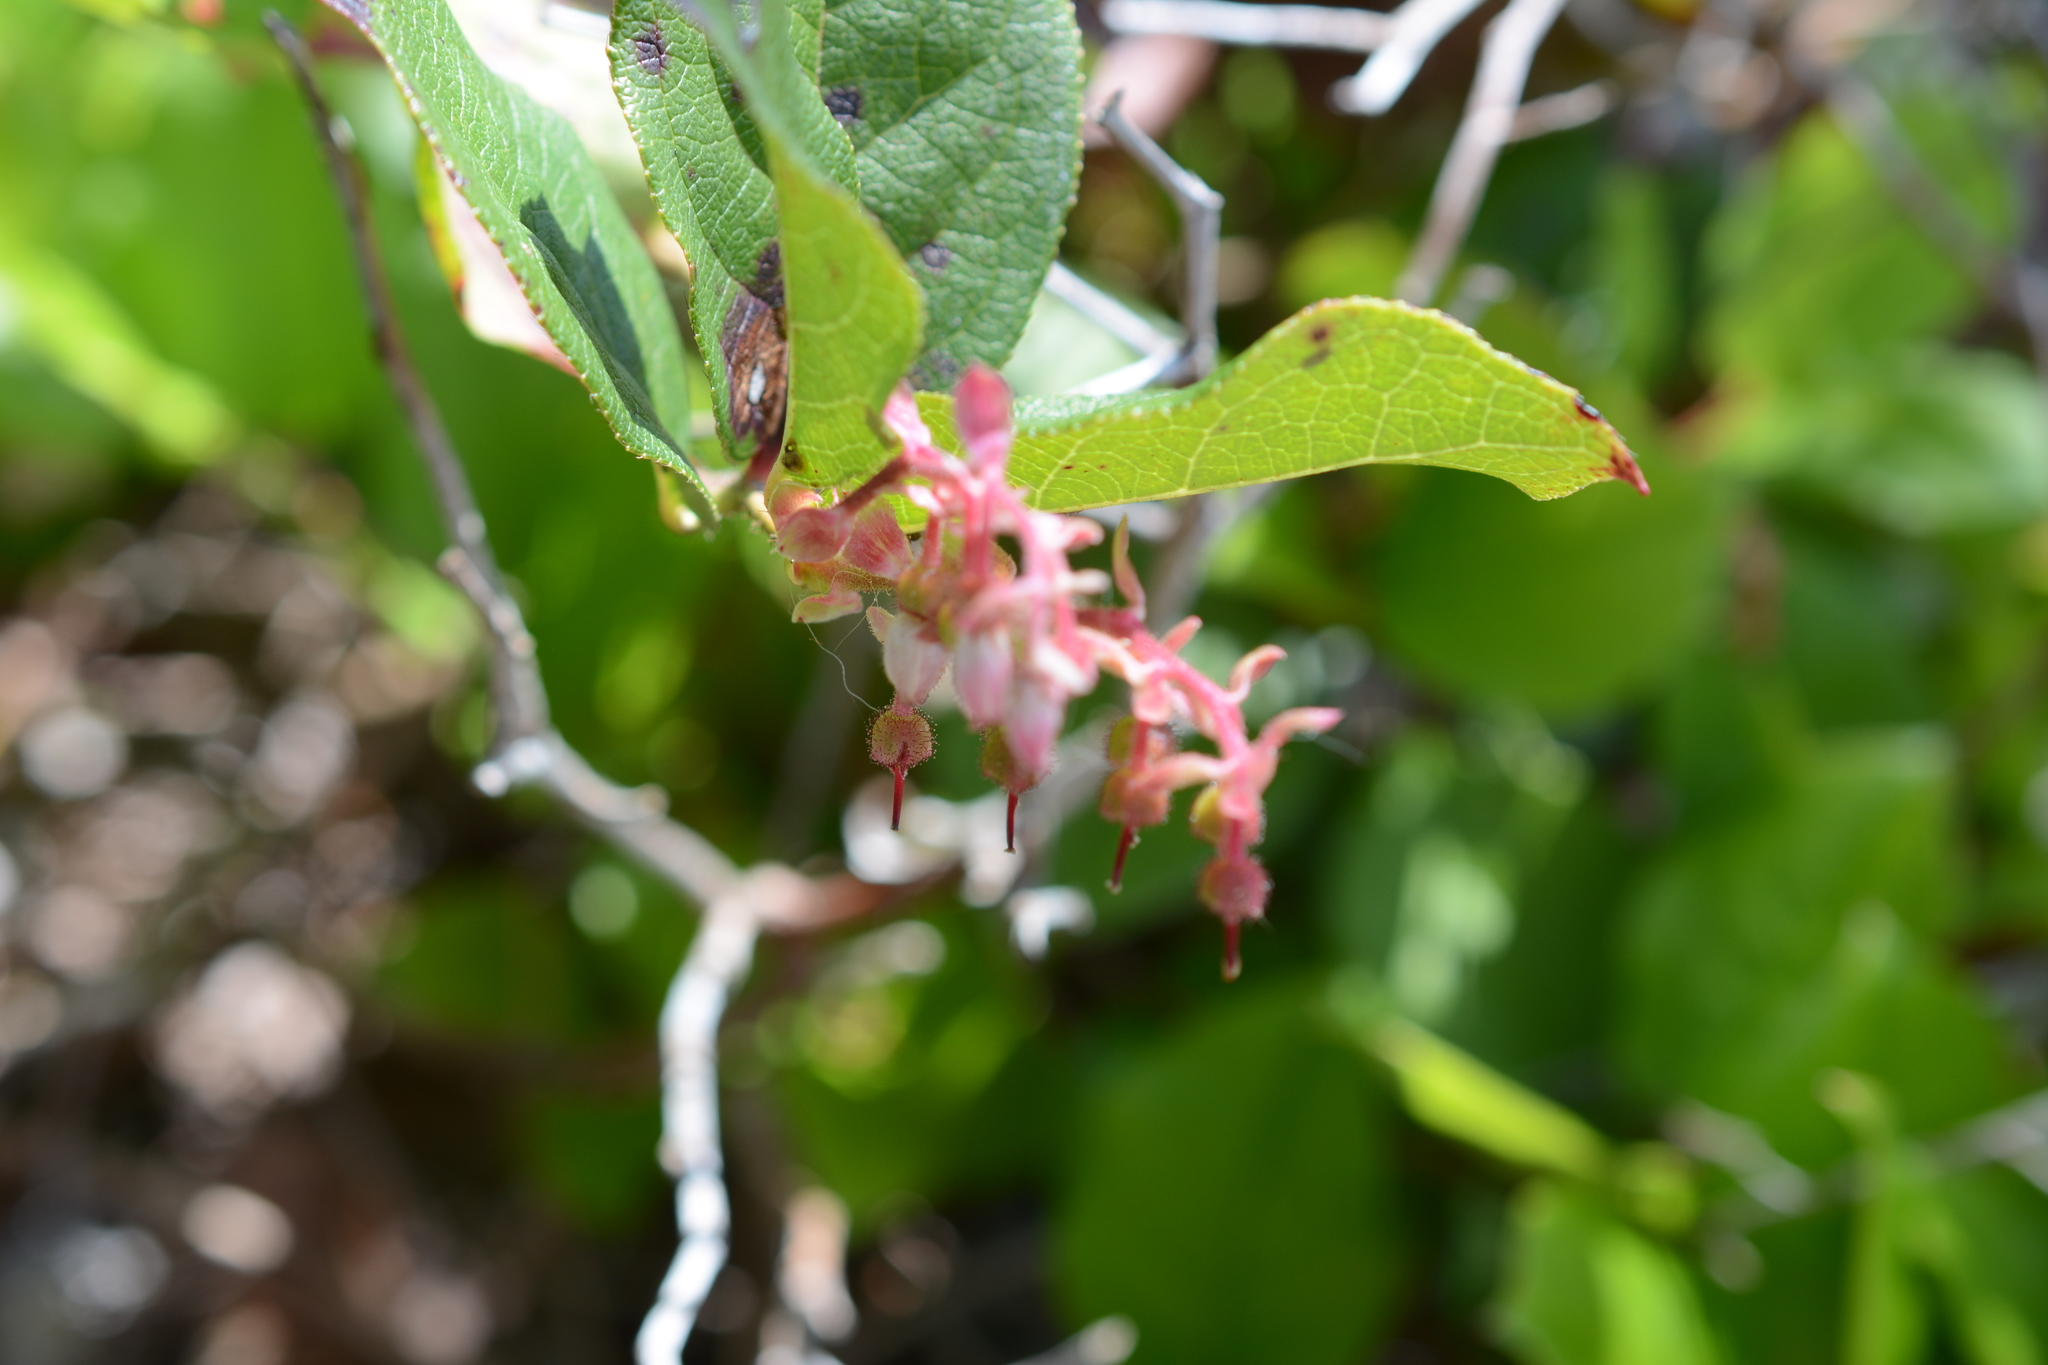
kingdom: Plantae
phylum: Tracheophyta
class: Magnoliopsida
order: Ericales
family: Ericaceae
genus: Gaultheria
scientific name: Gaultheria shallon
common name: Shallon
